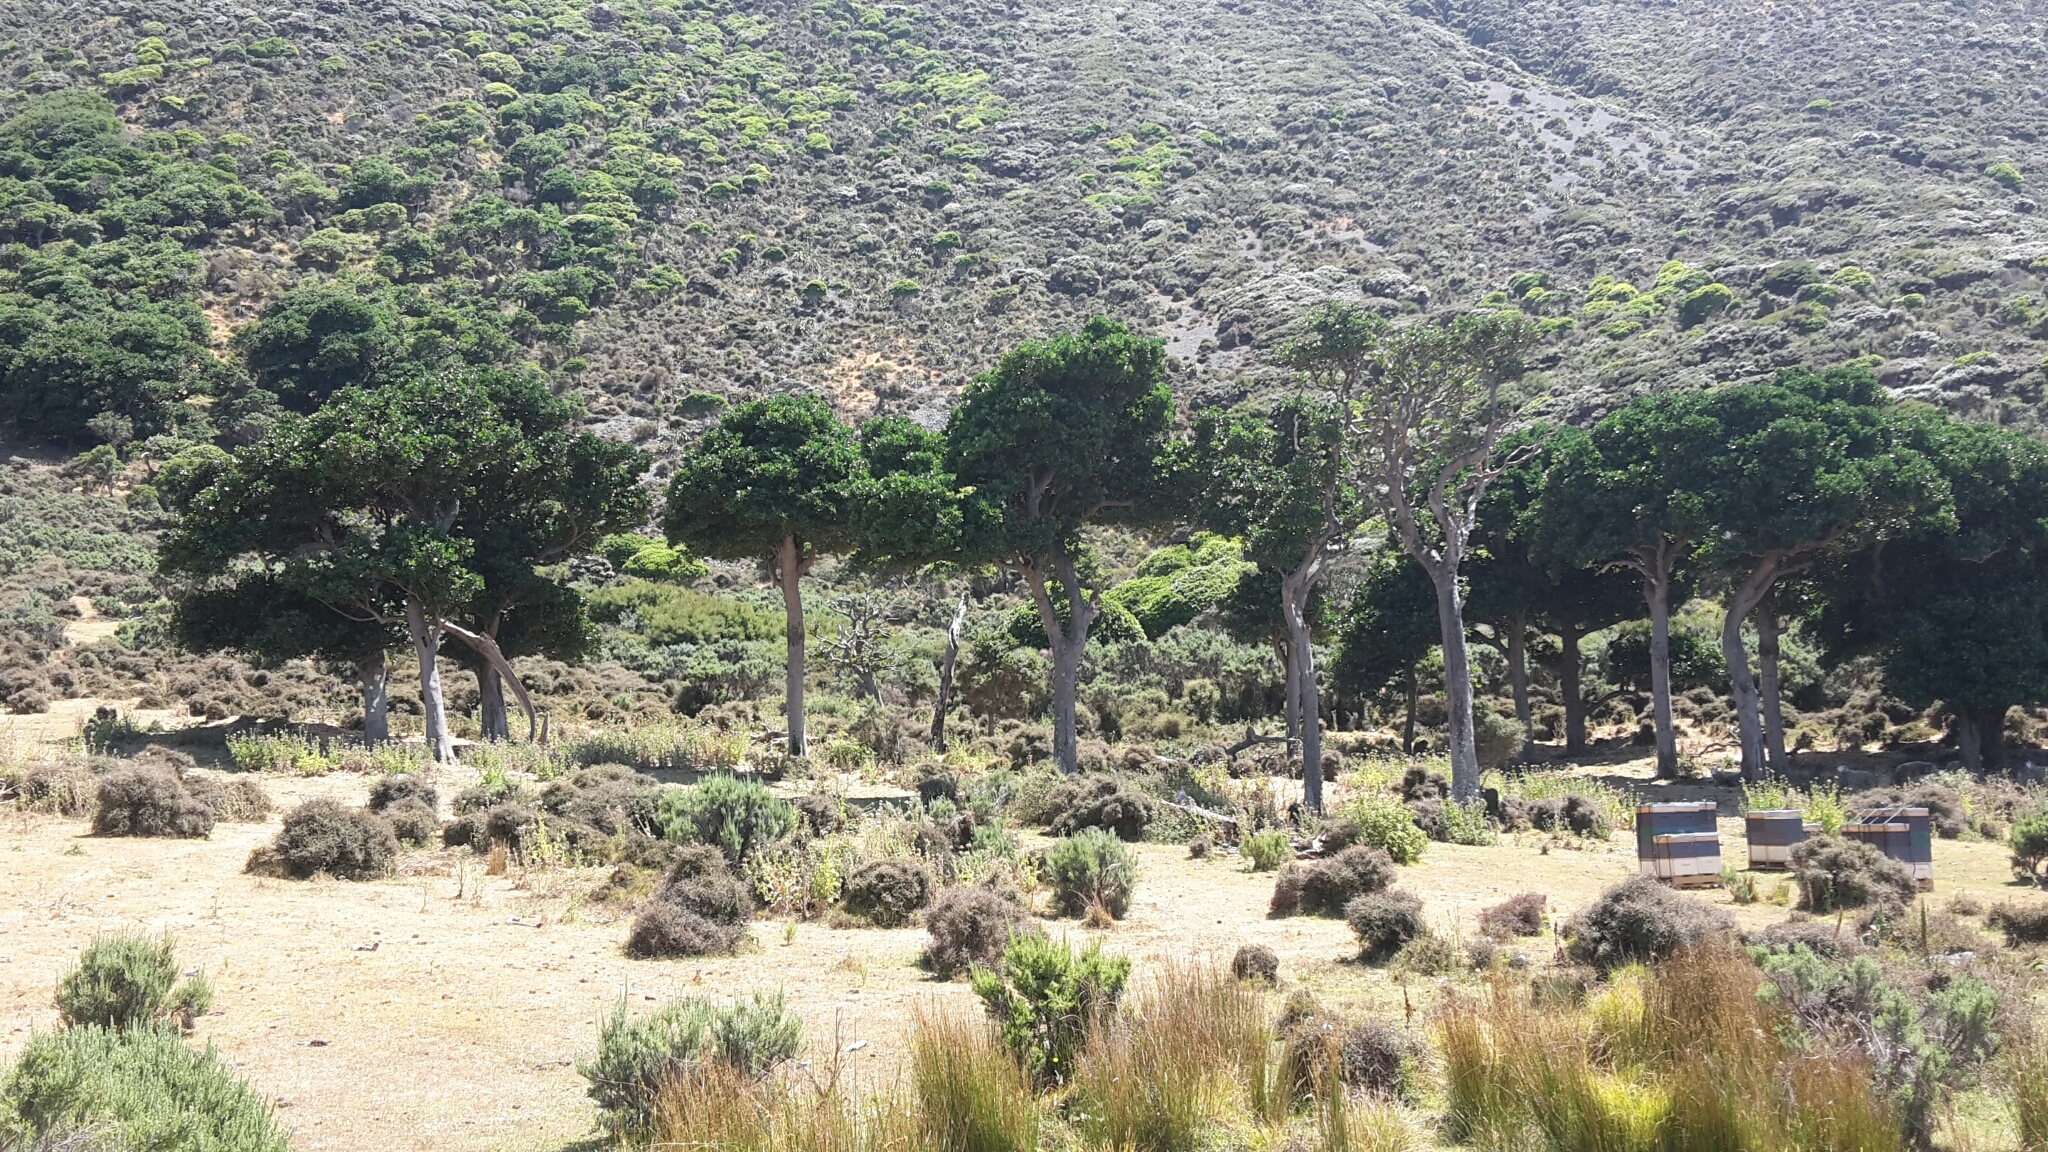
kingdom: Plantae
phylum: Tracheophyta
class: Magnoliopsida
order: Cucurbitales
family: Corynocarpaceae
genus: Corynocarpus
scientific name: Corynocarpus laevigatus
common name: New zealand laurel
